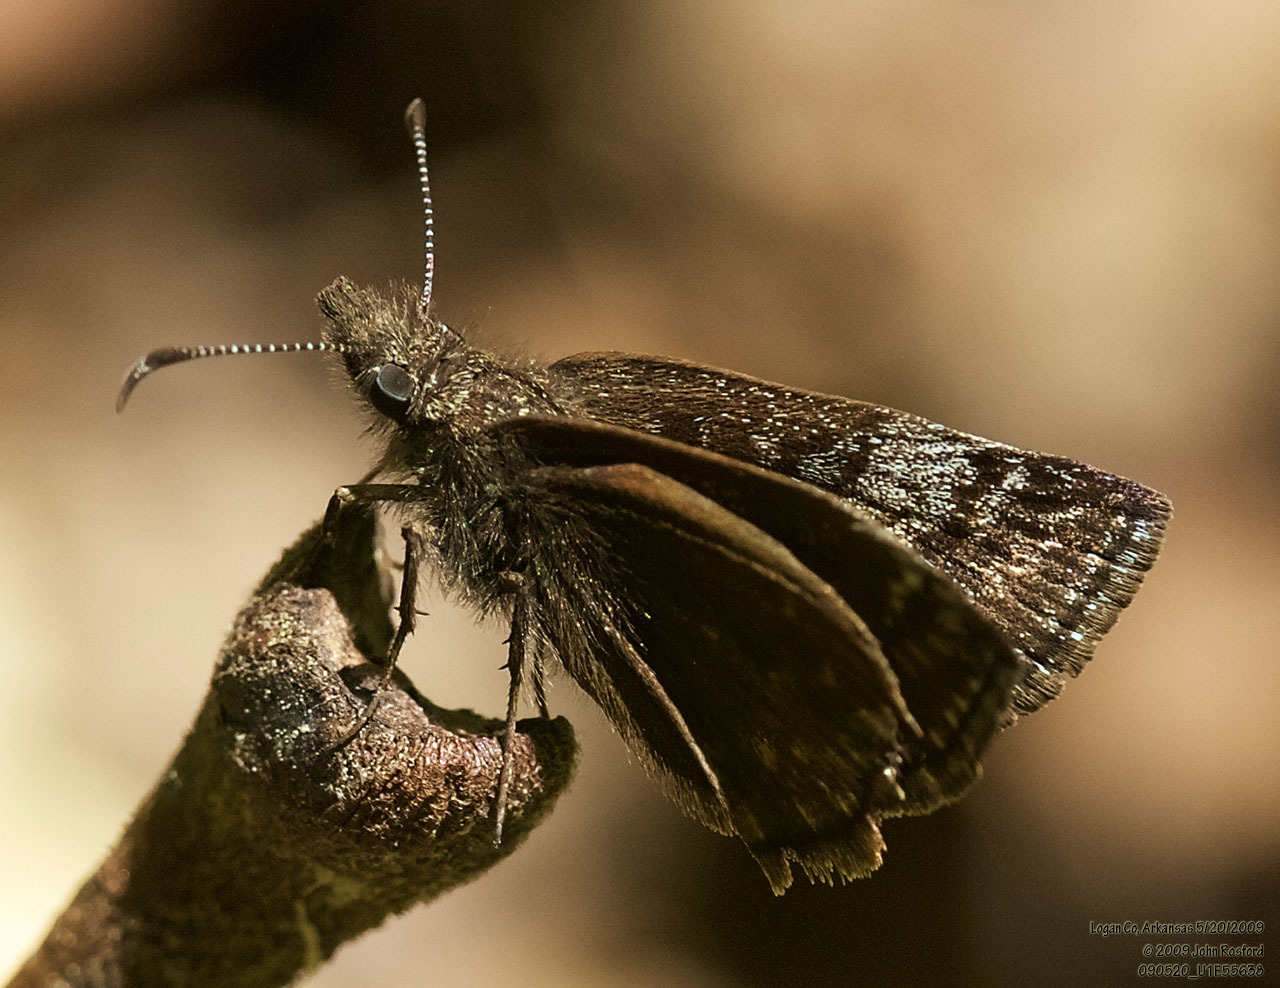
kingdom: Animalia
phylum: Arthropoda
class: Insecta
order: Lepidoptera
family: Hesperiidae
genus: Erynnis
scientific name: Erynnis icelus
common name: Dreamy duskywing
